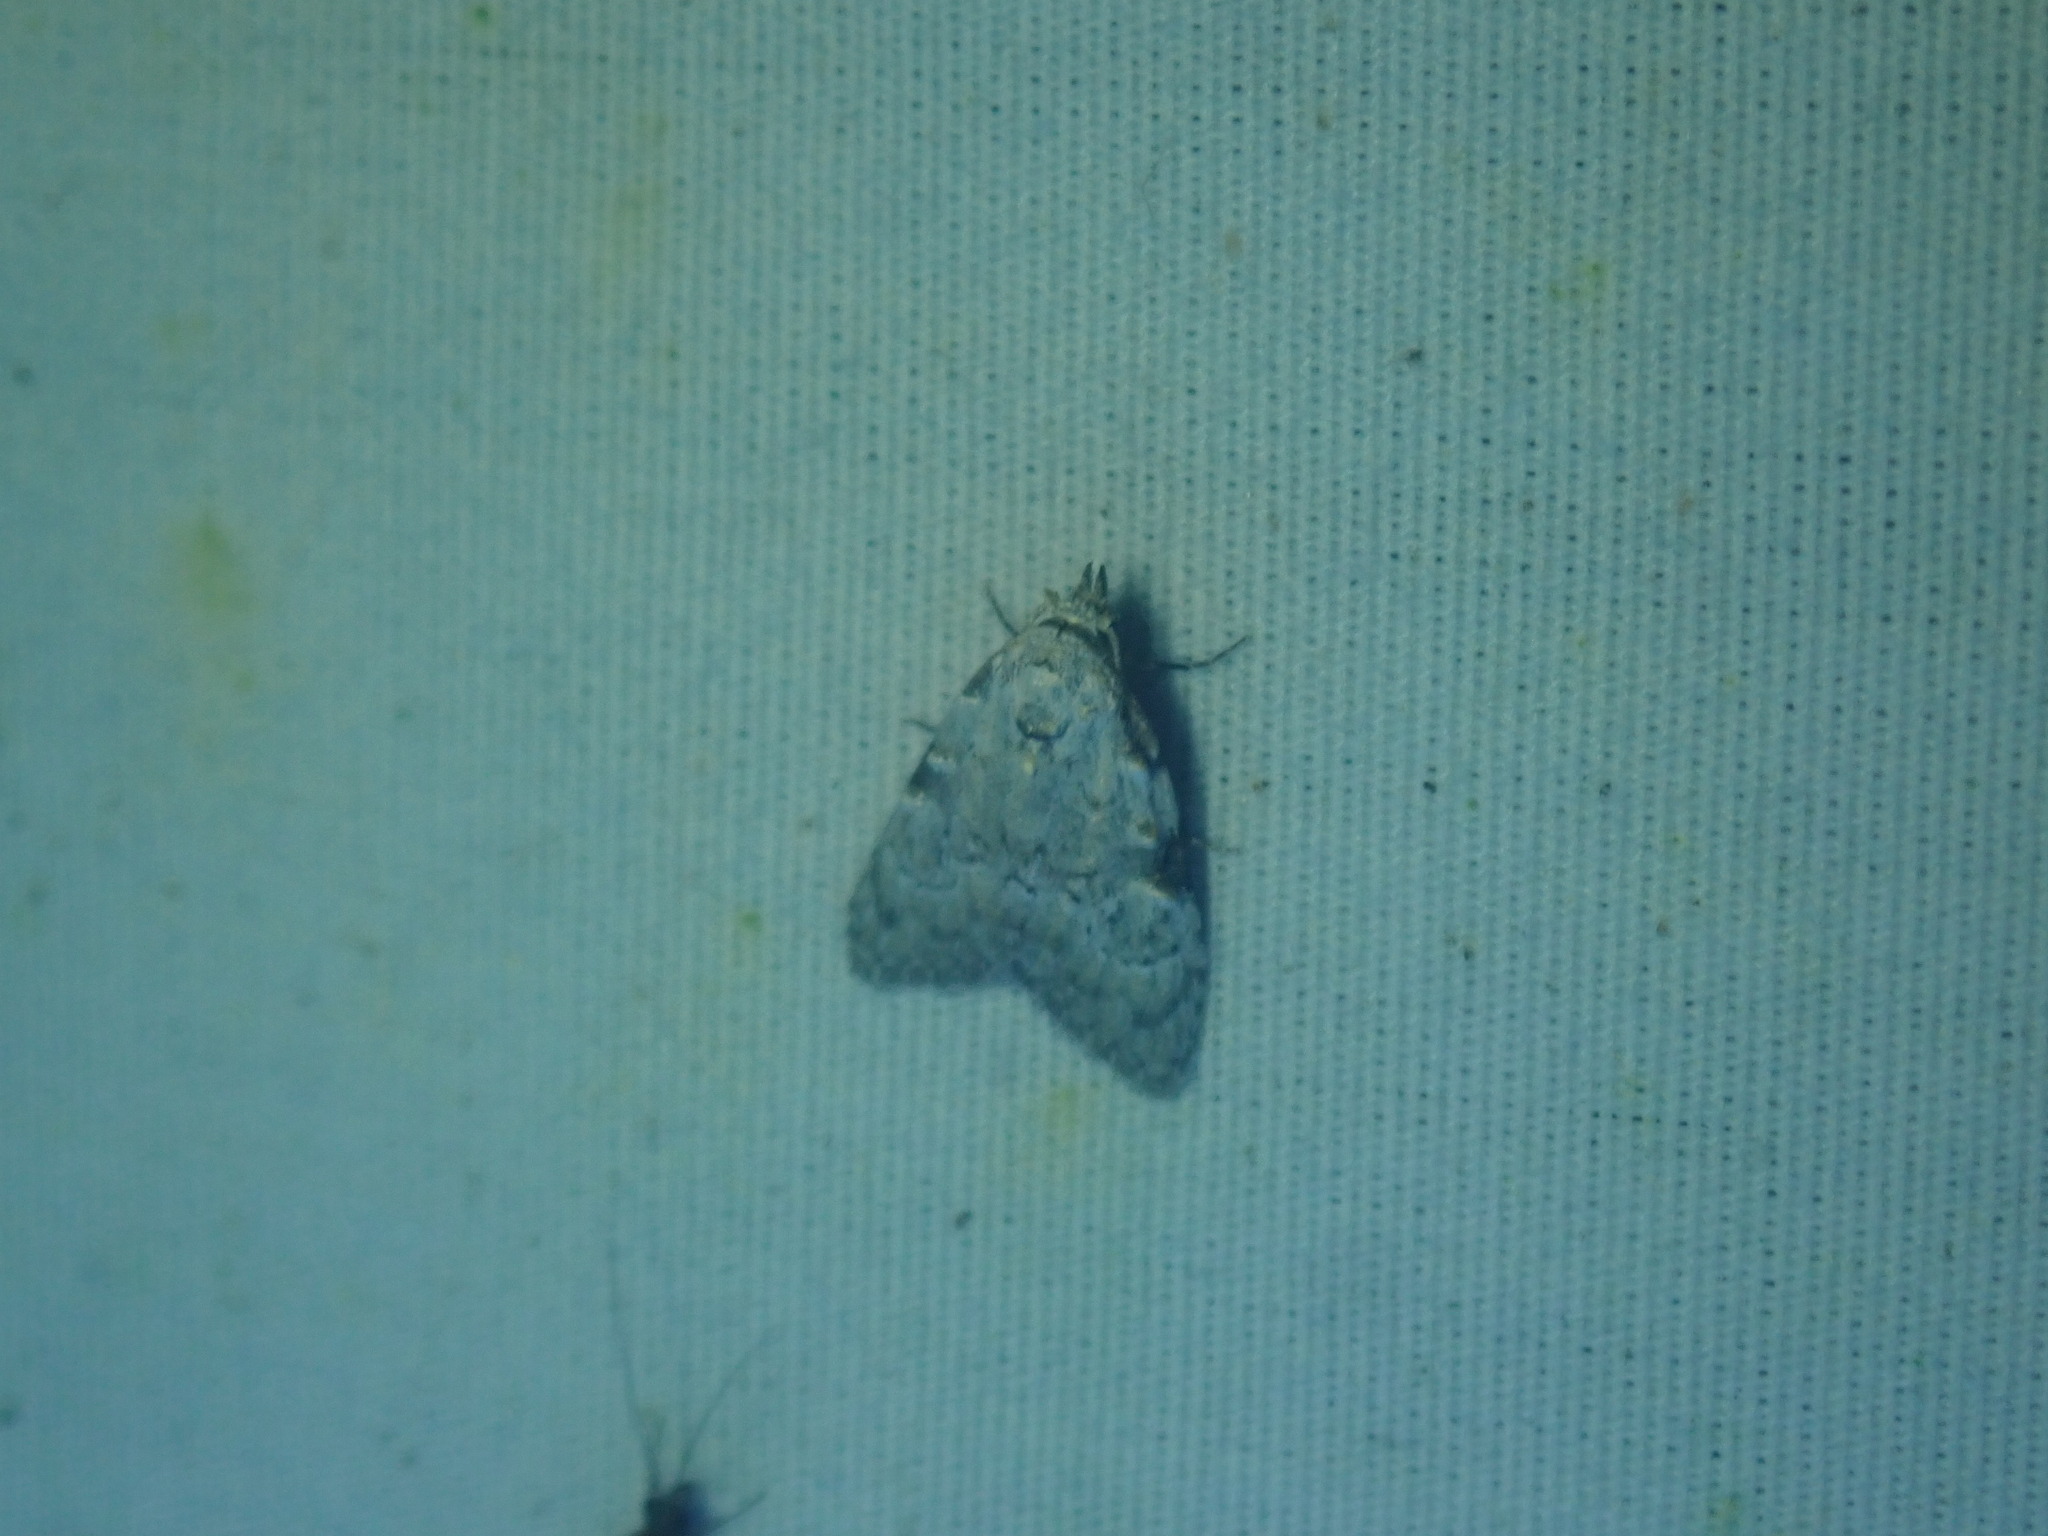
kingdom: Animalia
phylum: Arthropoda
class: Insecta
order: Lepidoptera
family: Nolidae
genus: Nola
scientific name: Nola triquetrana
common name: Three-spotted nola moth
